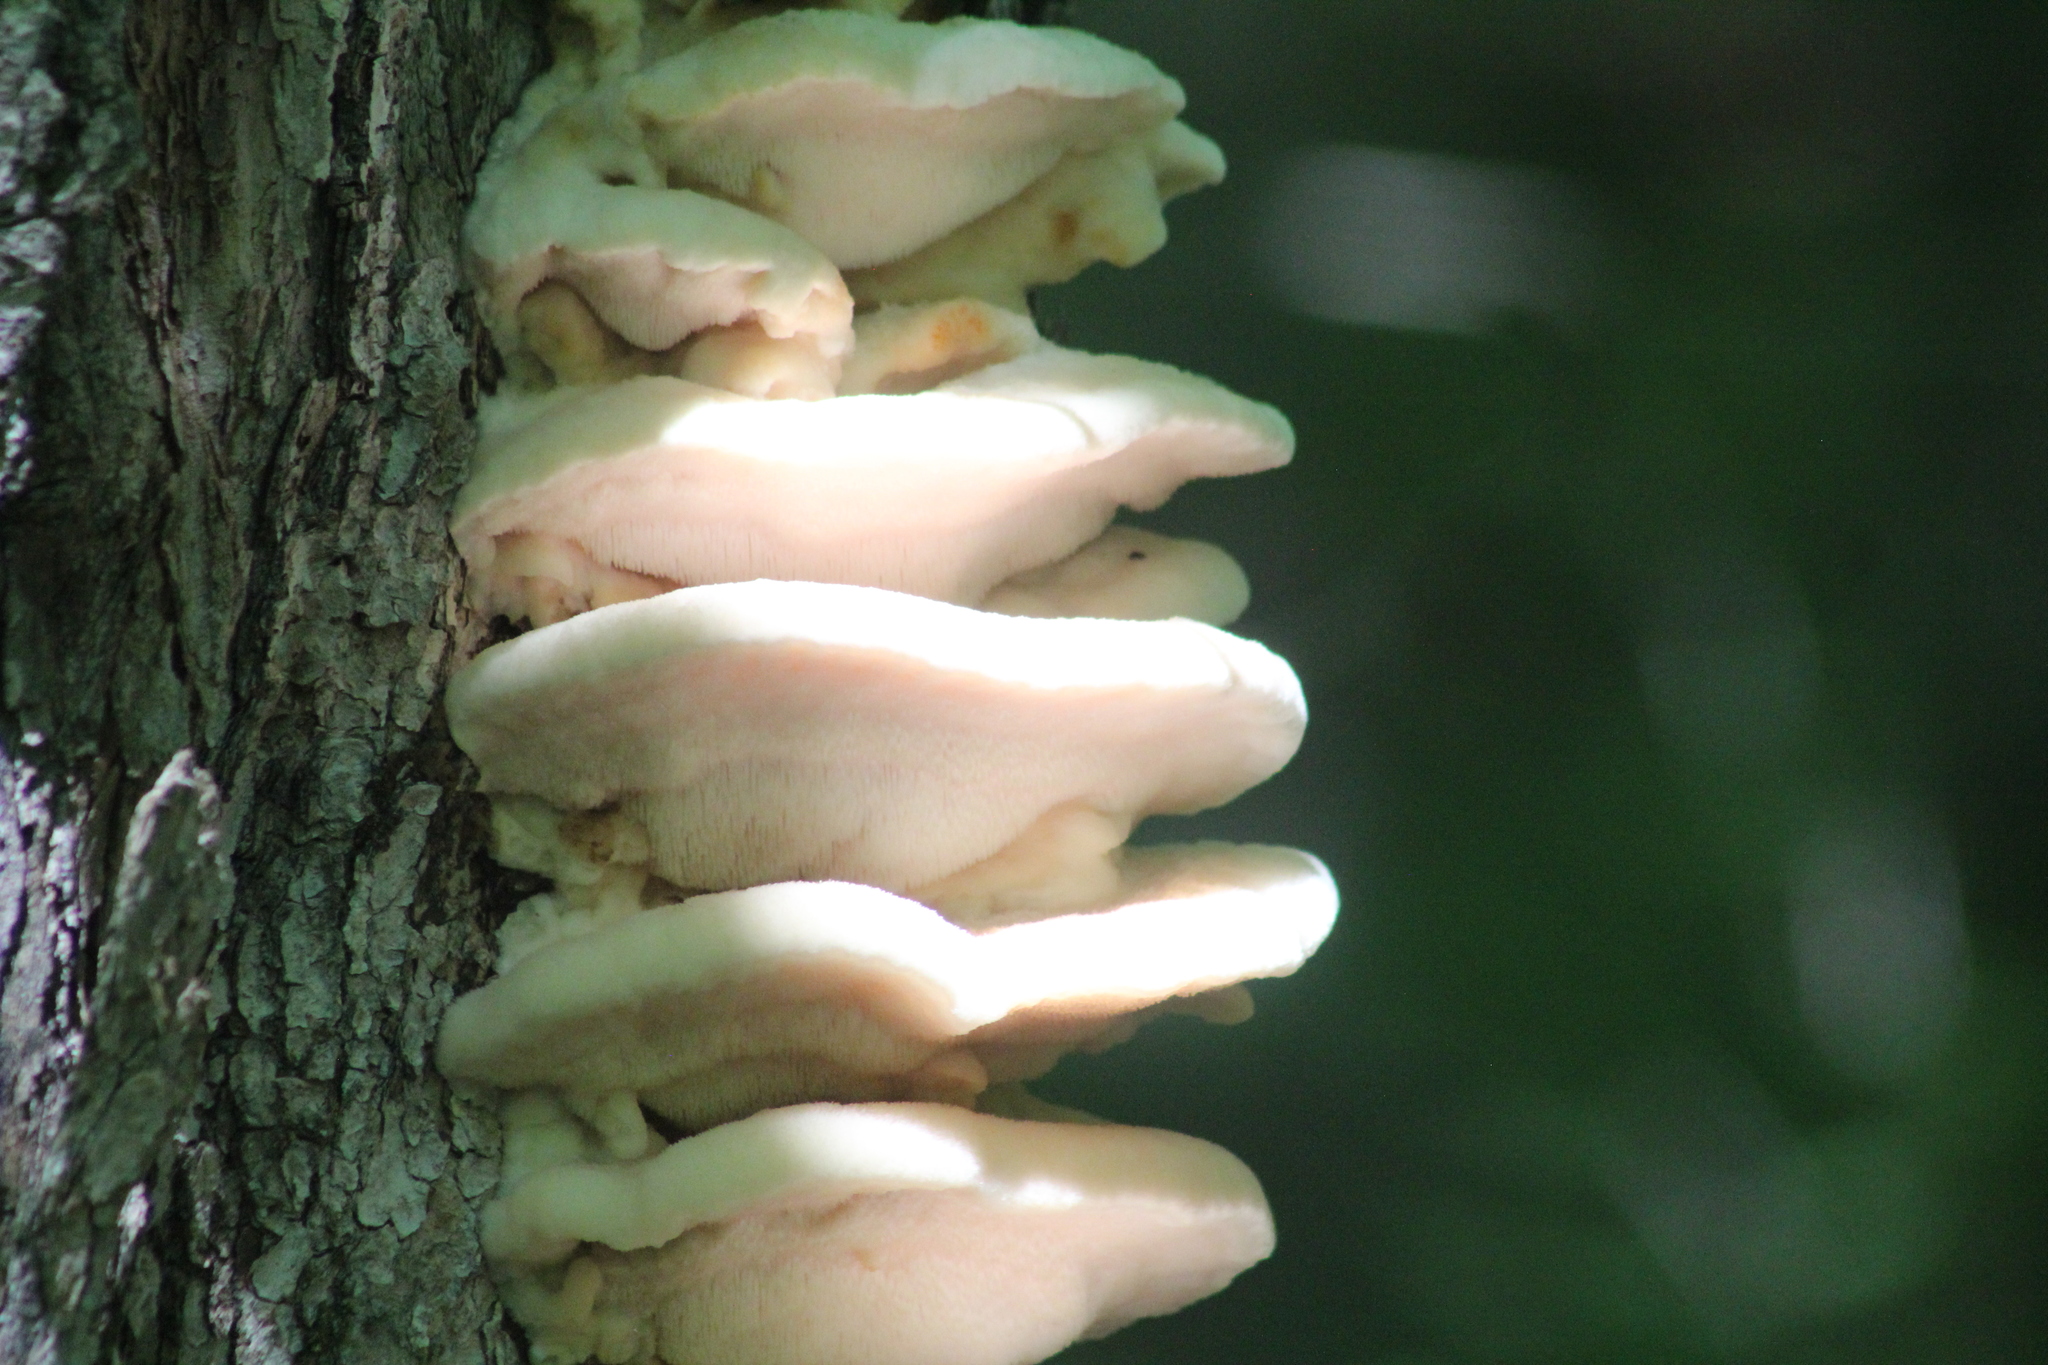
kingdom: Fungi
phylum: Basidiomycota
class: Agaricomycetes
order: Polyporales
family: Meruliaceae
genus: Climacodon
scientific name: Climacodon septentrionalis
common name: Northern tooth
